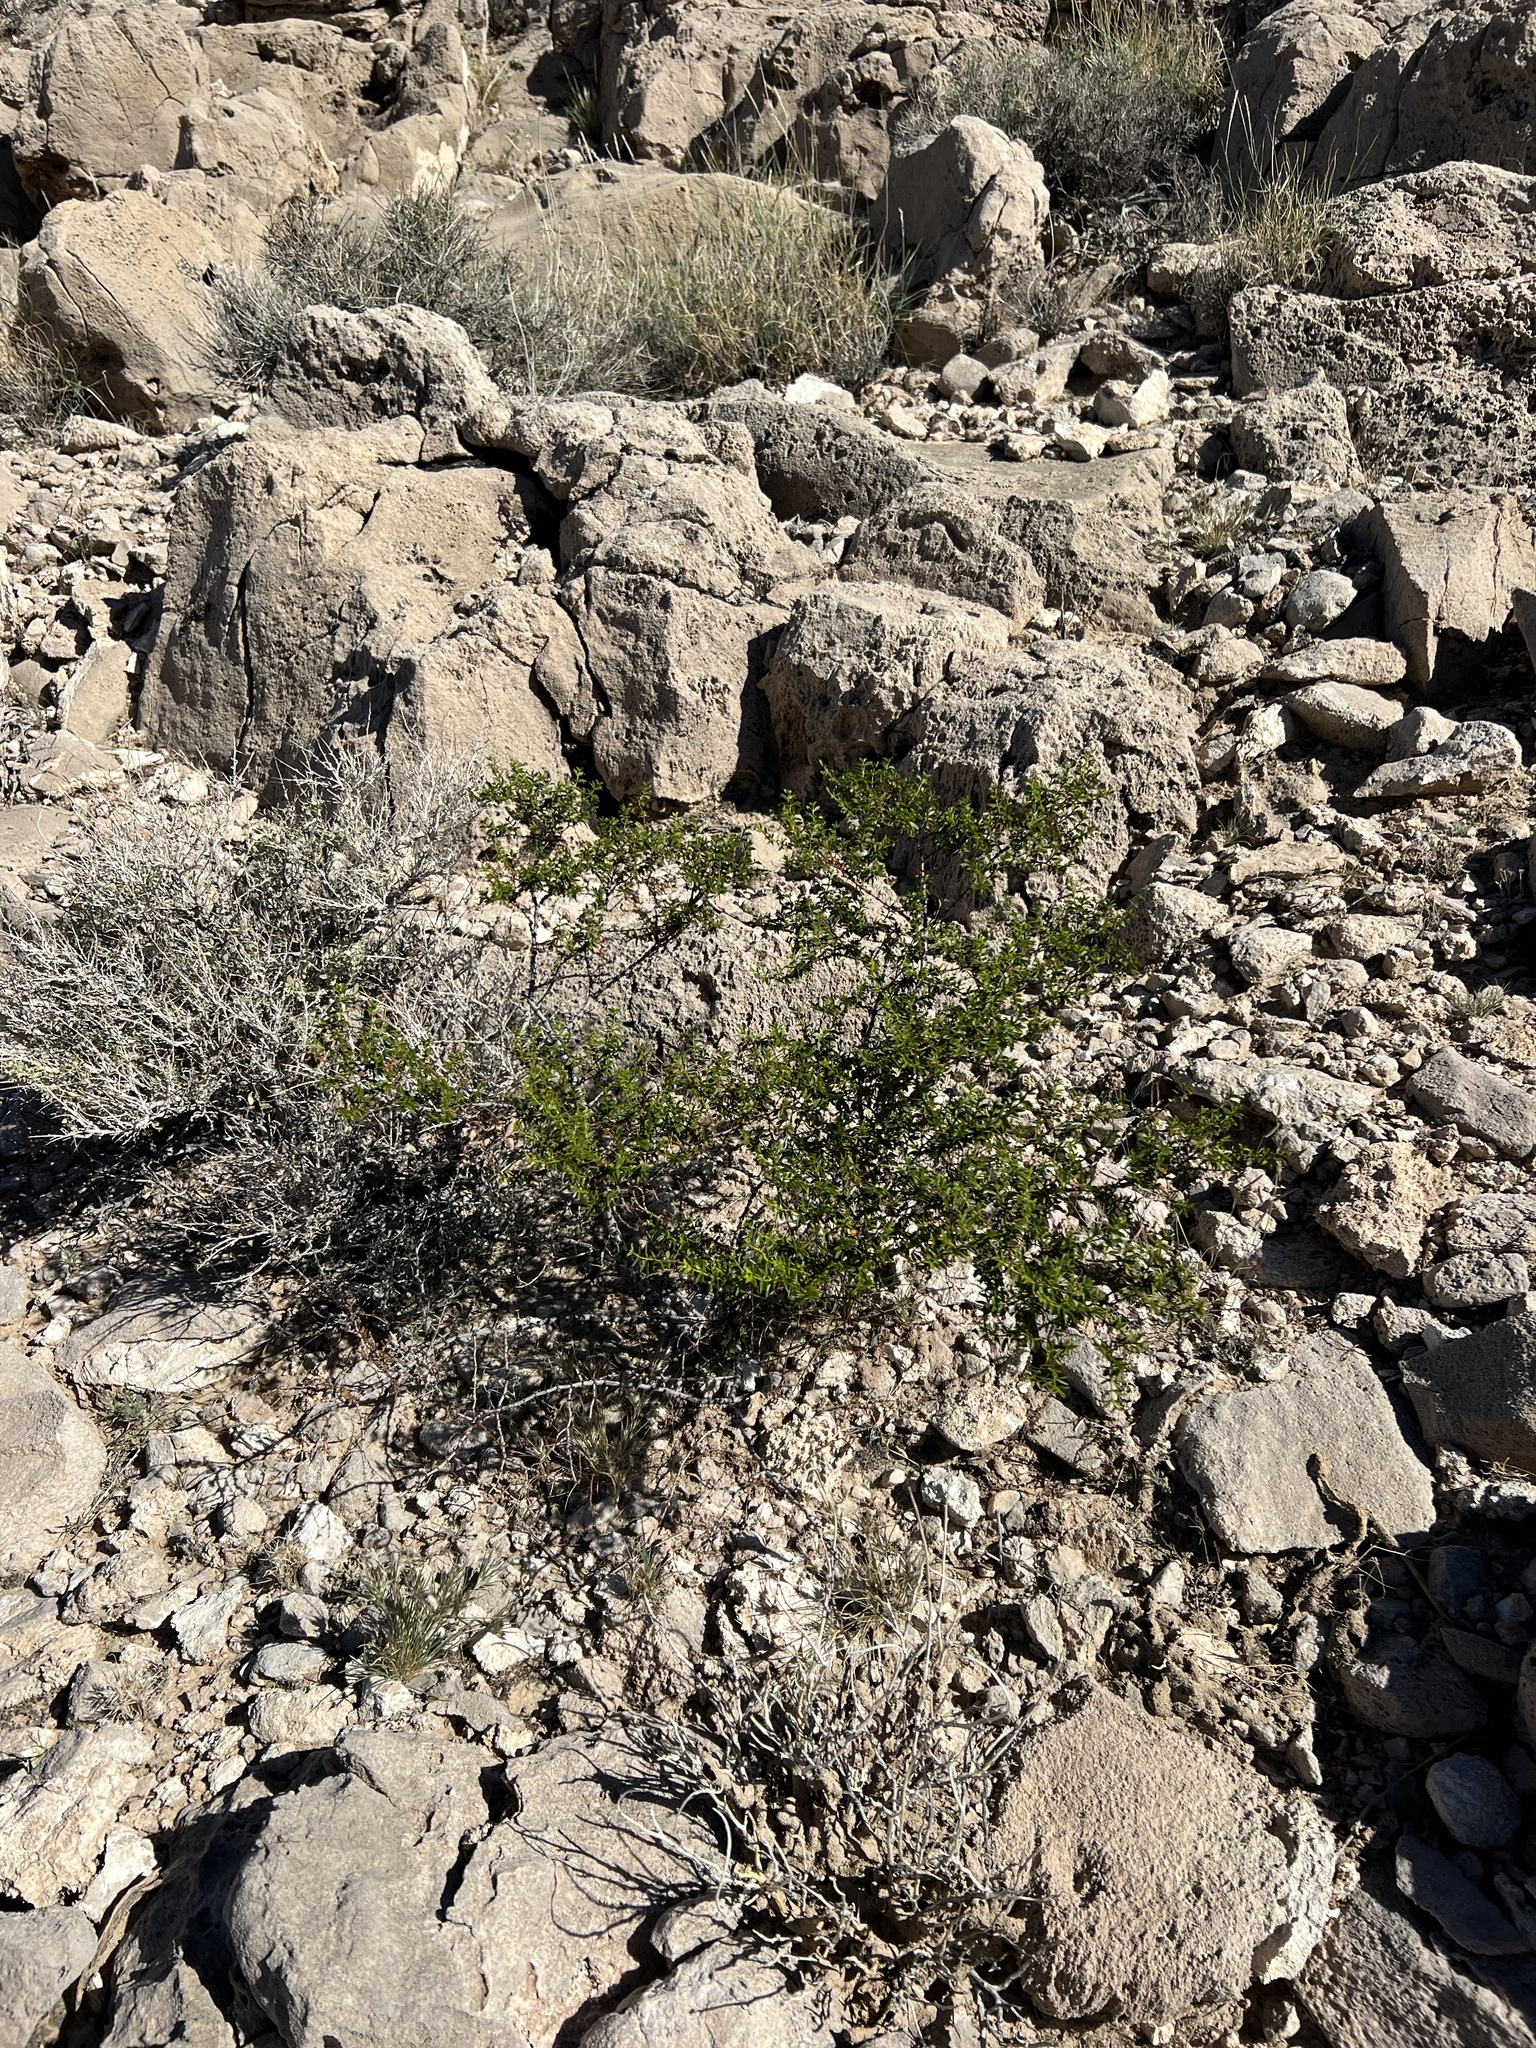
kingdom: Plantae
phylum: Tracheophyta
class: Magnoliopsida
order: Zygophyllales
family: Zygophyllaceae
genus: Larrea
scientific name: Larrea tridentata
